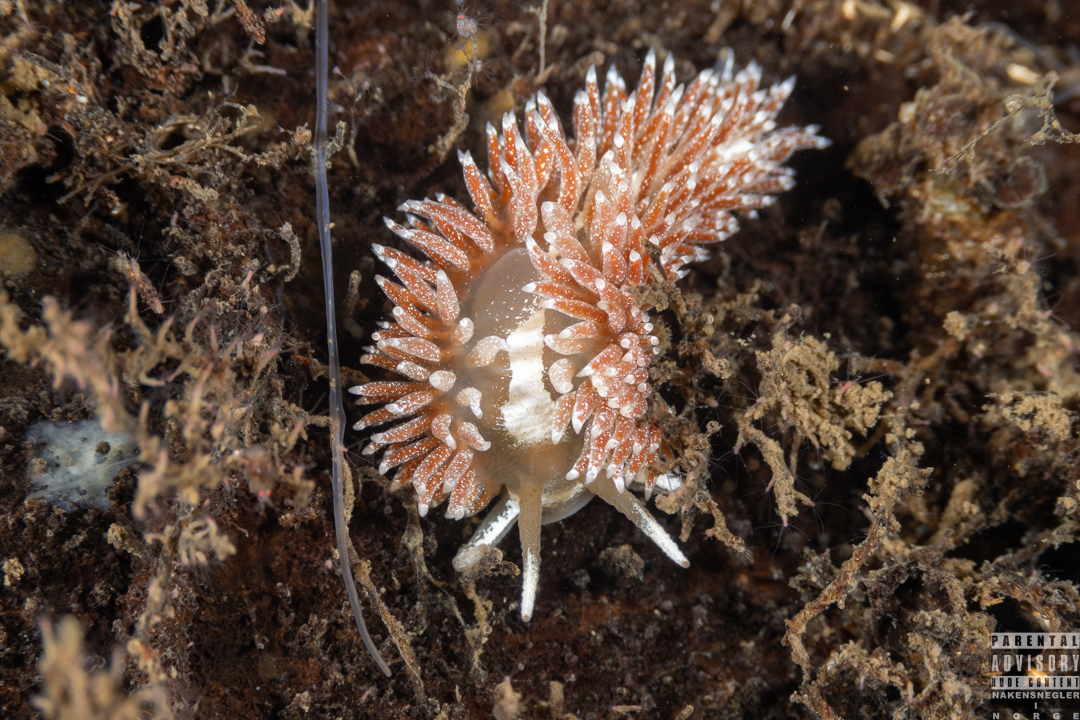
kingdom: Animalia
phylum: Mollusca
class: Gastropoda
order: Nudibranchia
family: Coryphellidae
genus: Coryphella
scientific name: Coryphella monicae
